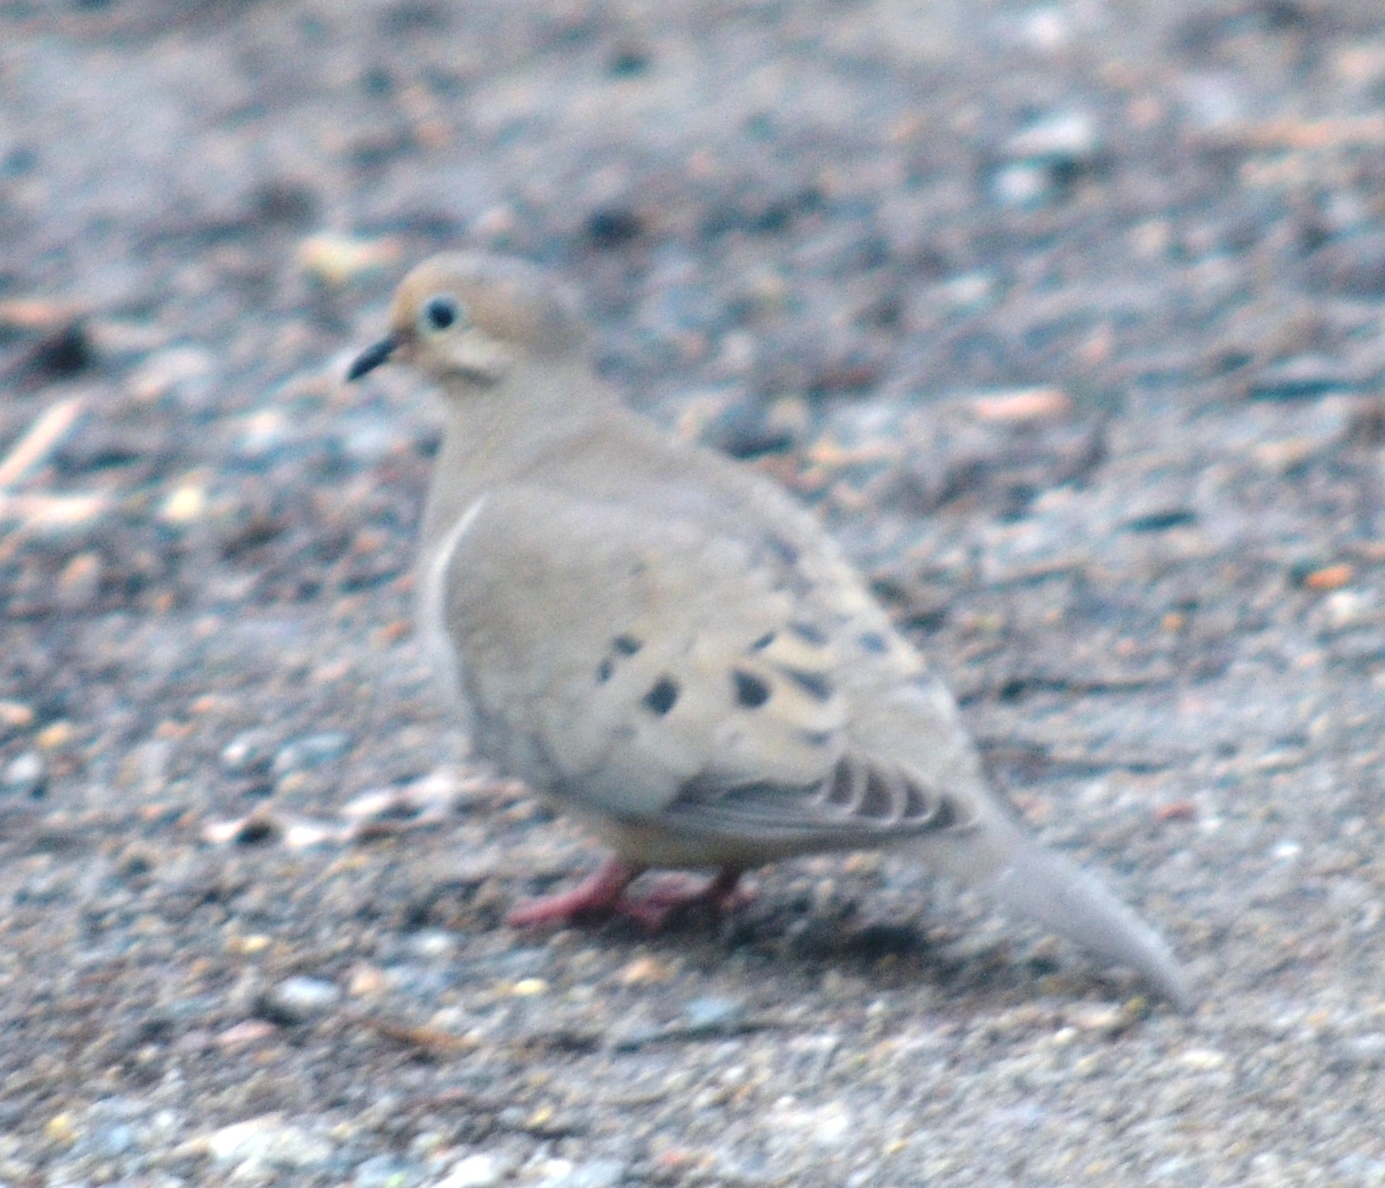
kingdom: Animalia
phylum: Chordata
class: Aves
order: Columbiformes
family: Columbidae
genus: Zenaida
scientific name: Zenaida macroura
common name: Mourning dove
